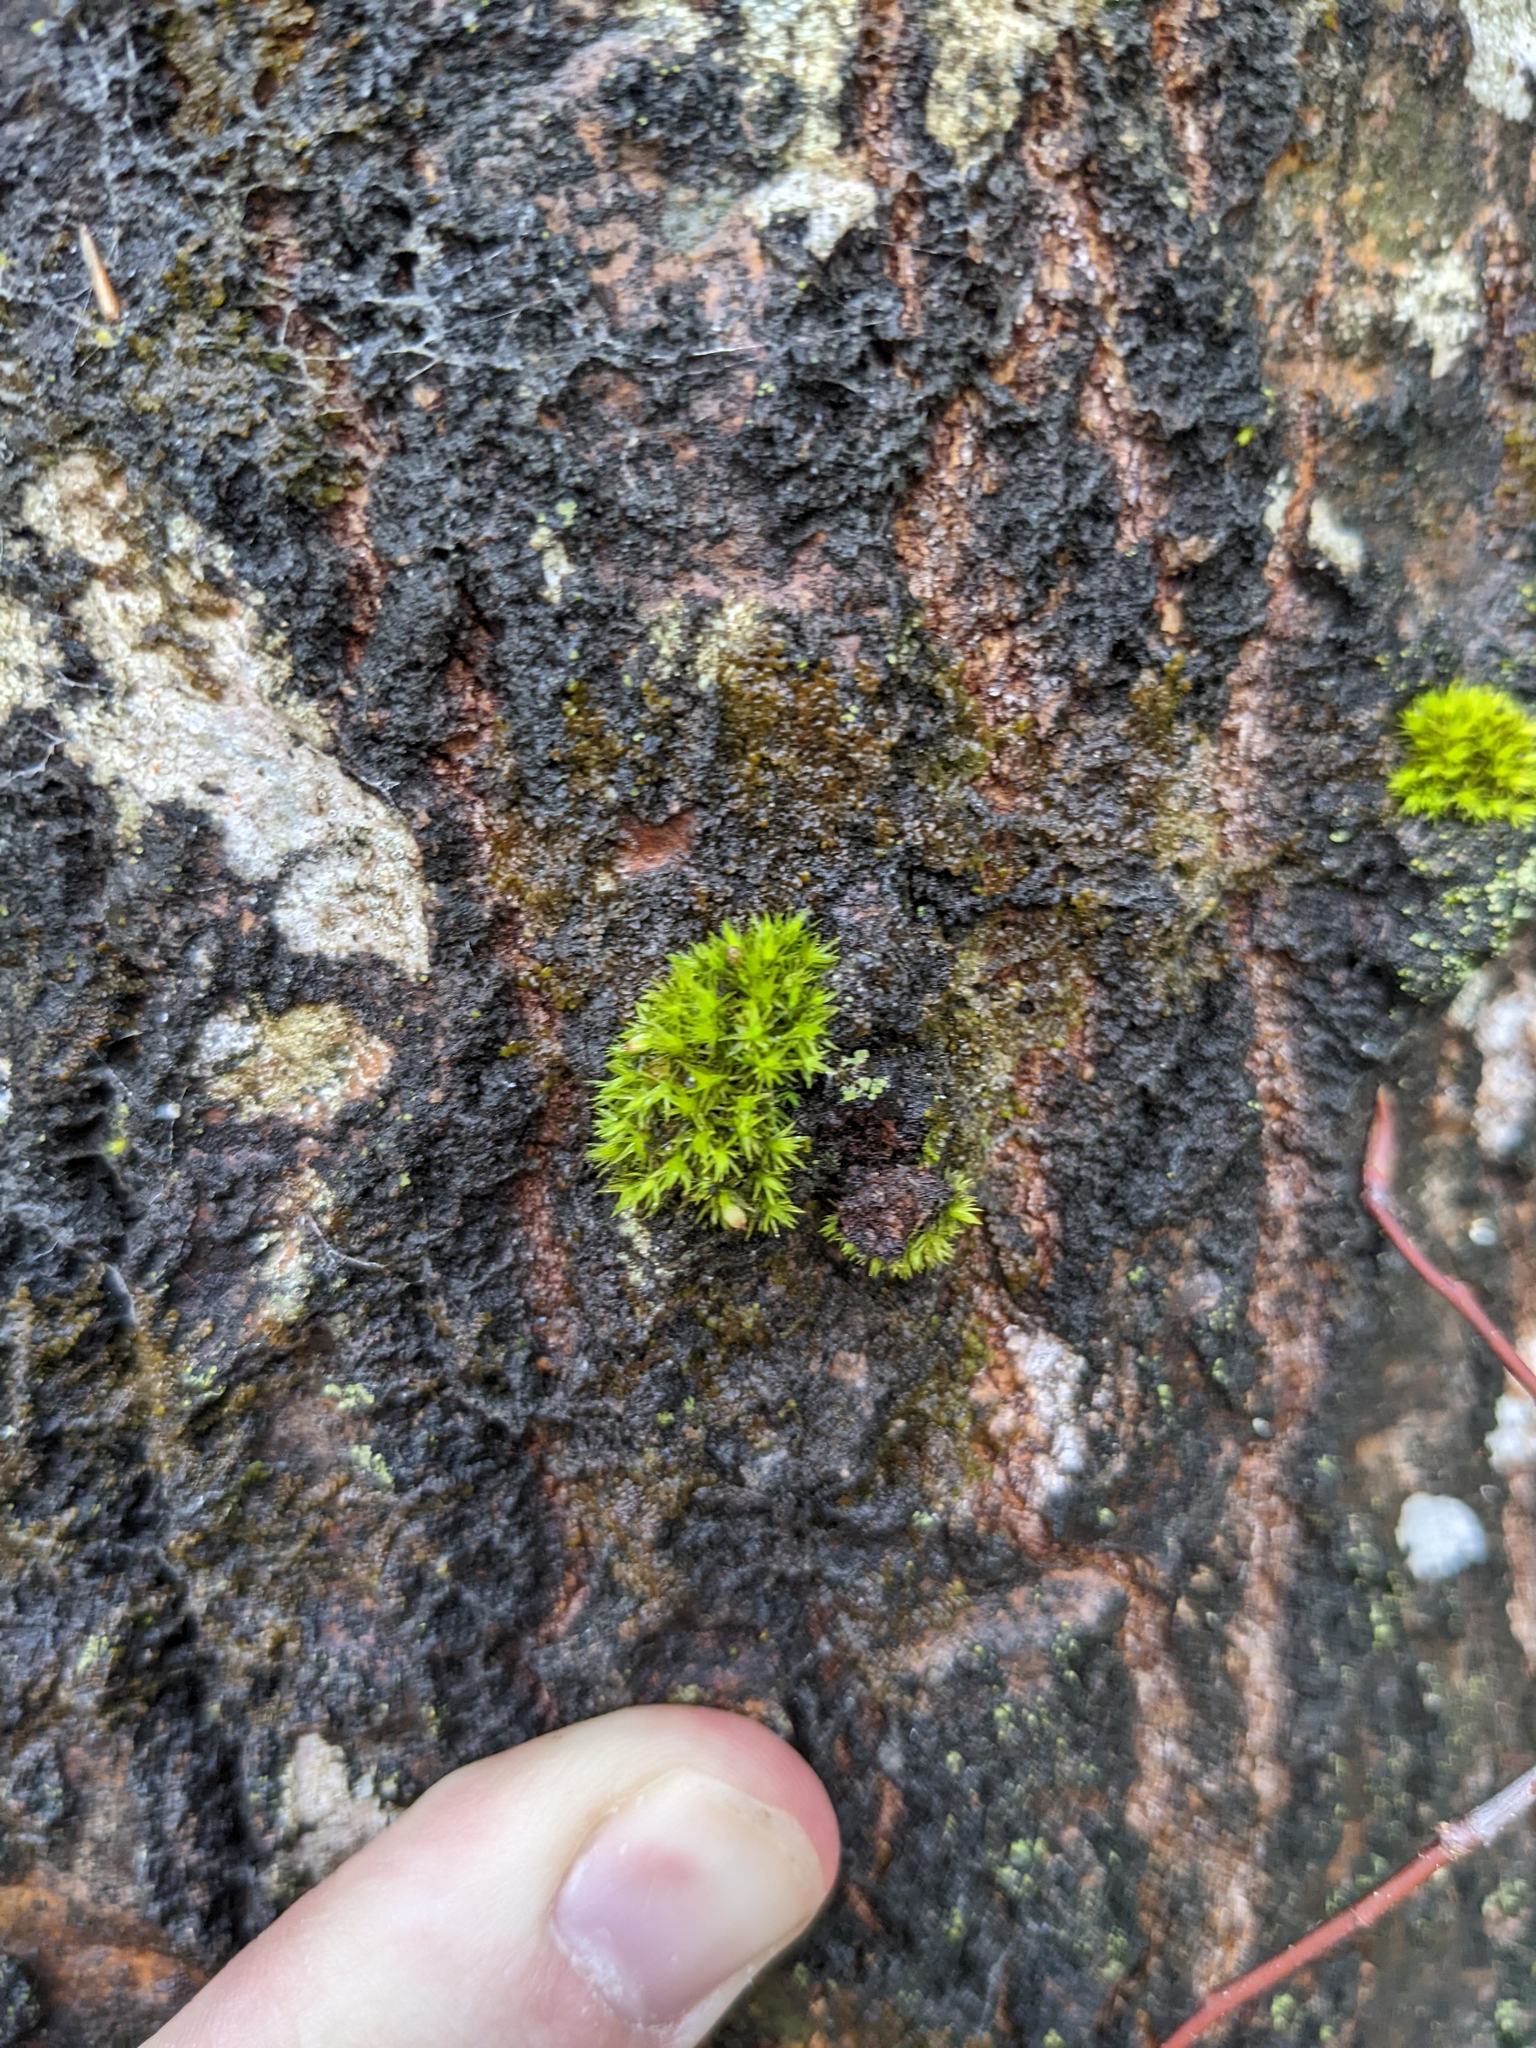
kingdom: Plantae
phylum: Bryophyta
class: Bryopsida
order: Orthotrichales
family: Orthotrichaceae
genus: Ulota
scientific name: Ulota crispa
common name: Crisped pincushion moss
